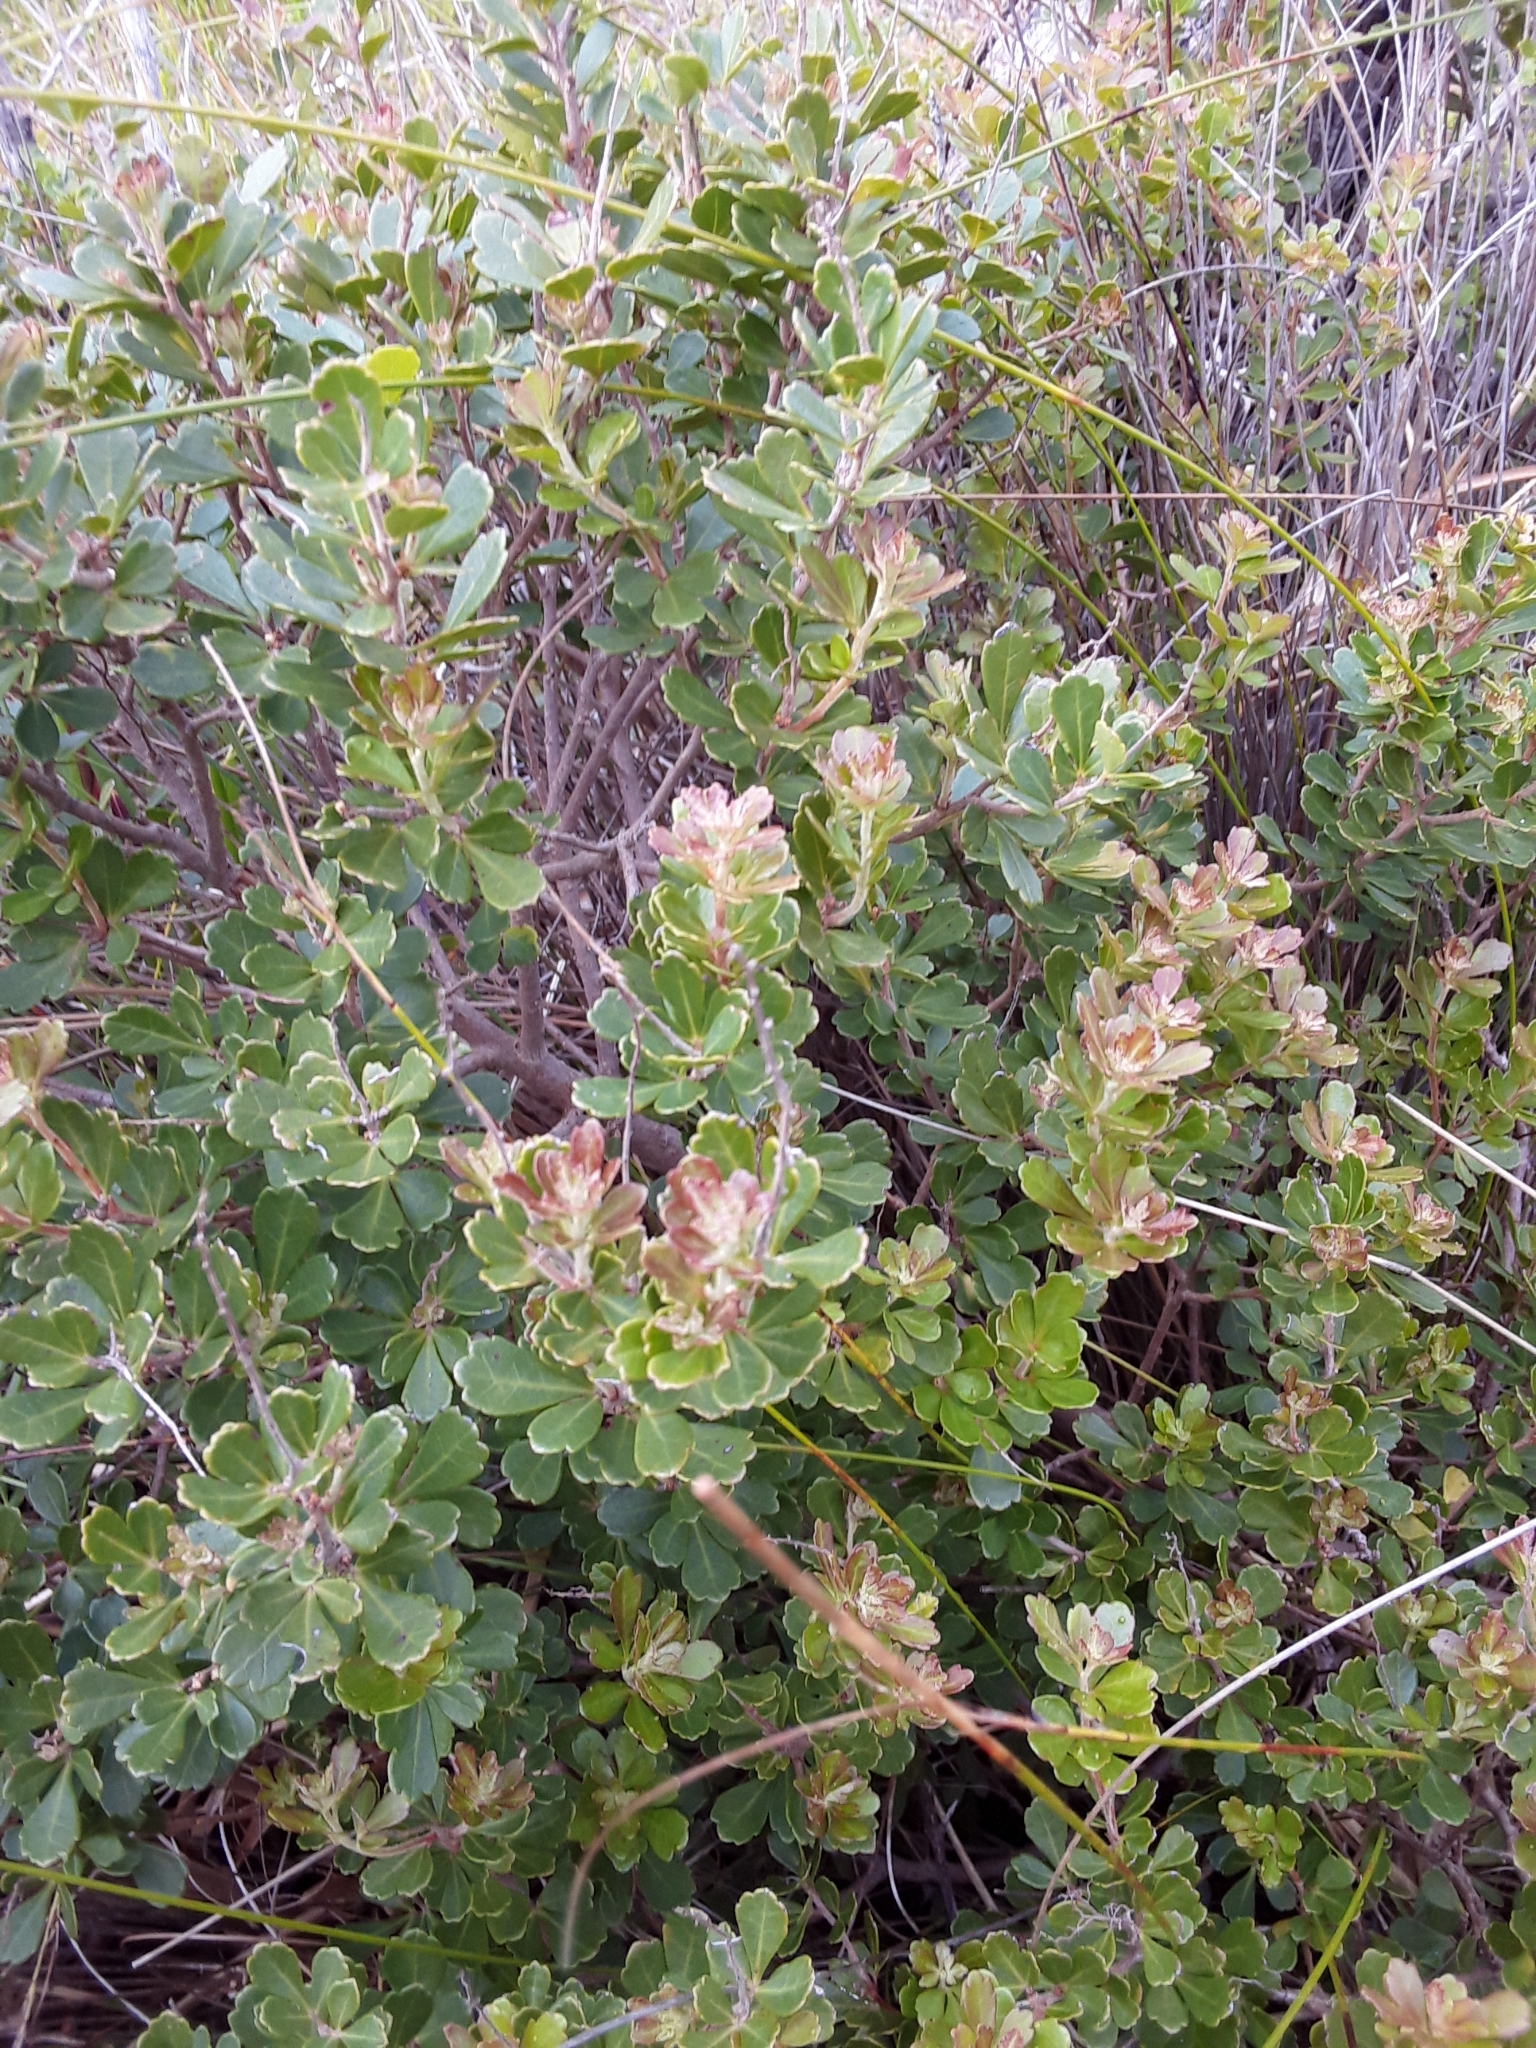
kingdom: Plantae
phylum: Tracheophyta
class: Magnoliopsida
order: Sapindales
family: Anacardiaceae
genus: Searsia
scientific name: Searsia crenata
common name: Crowberry
